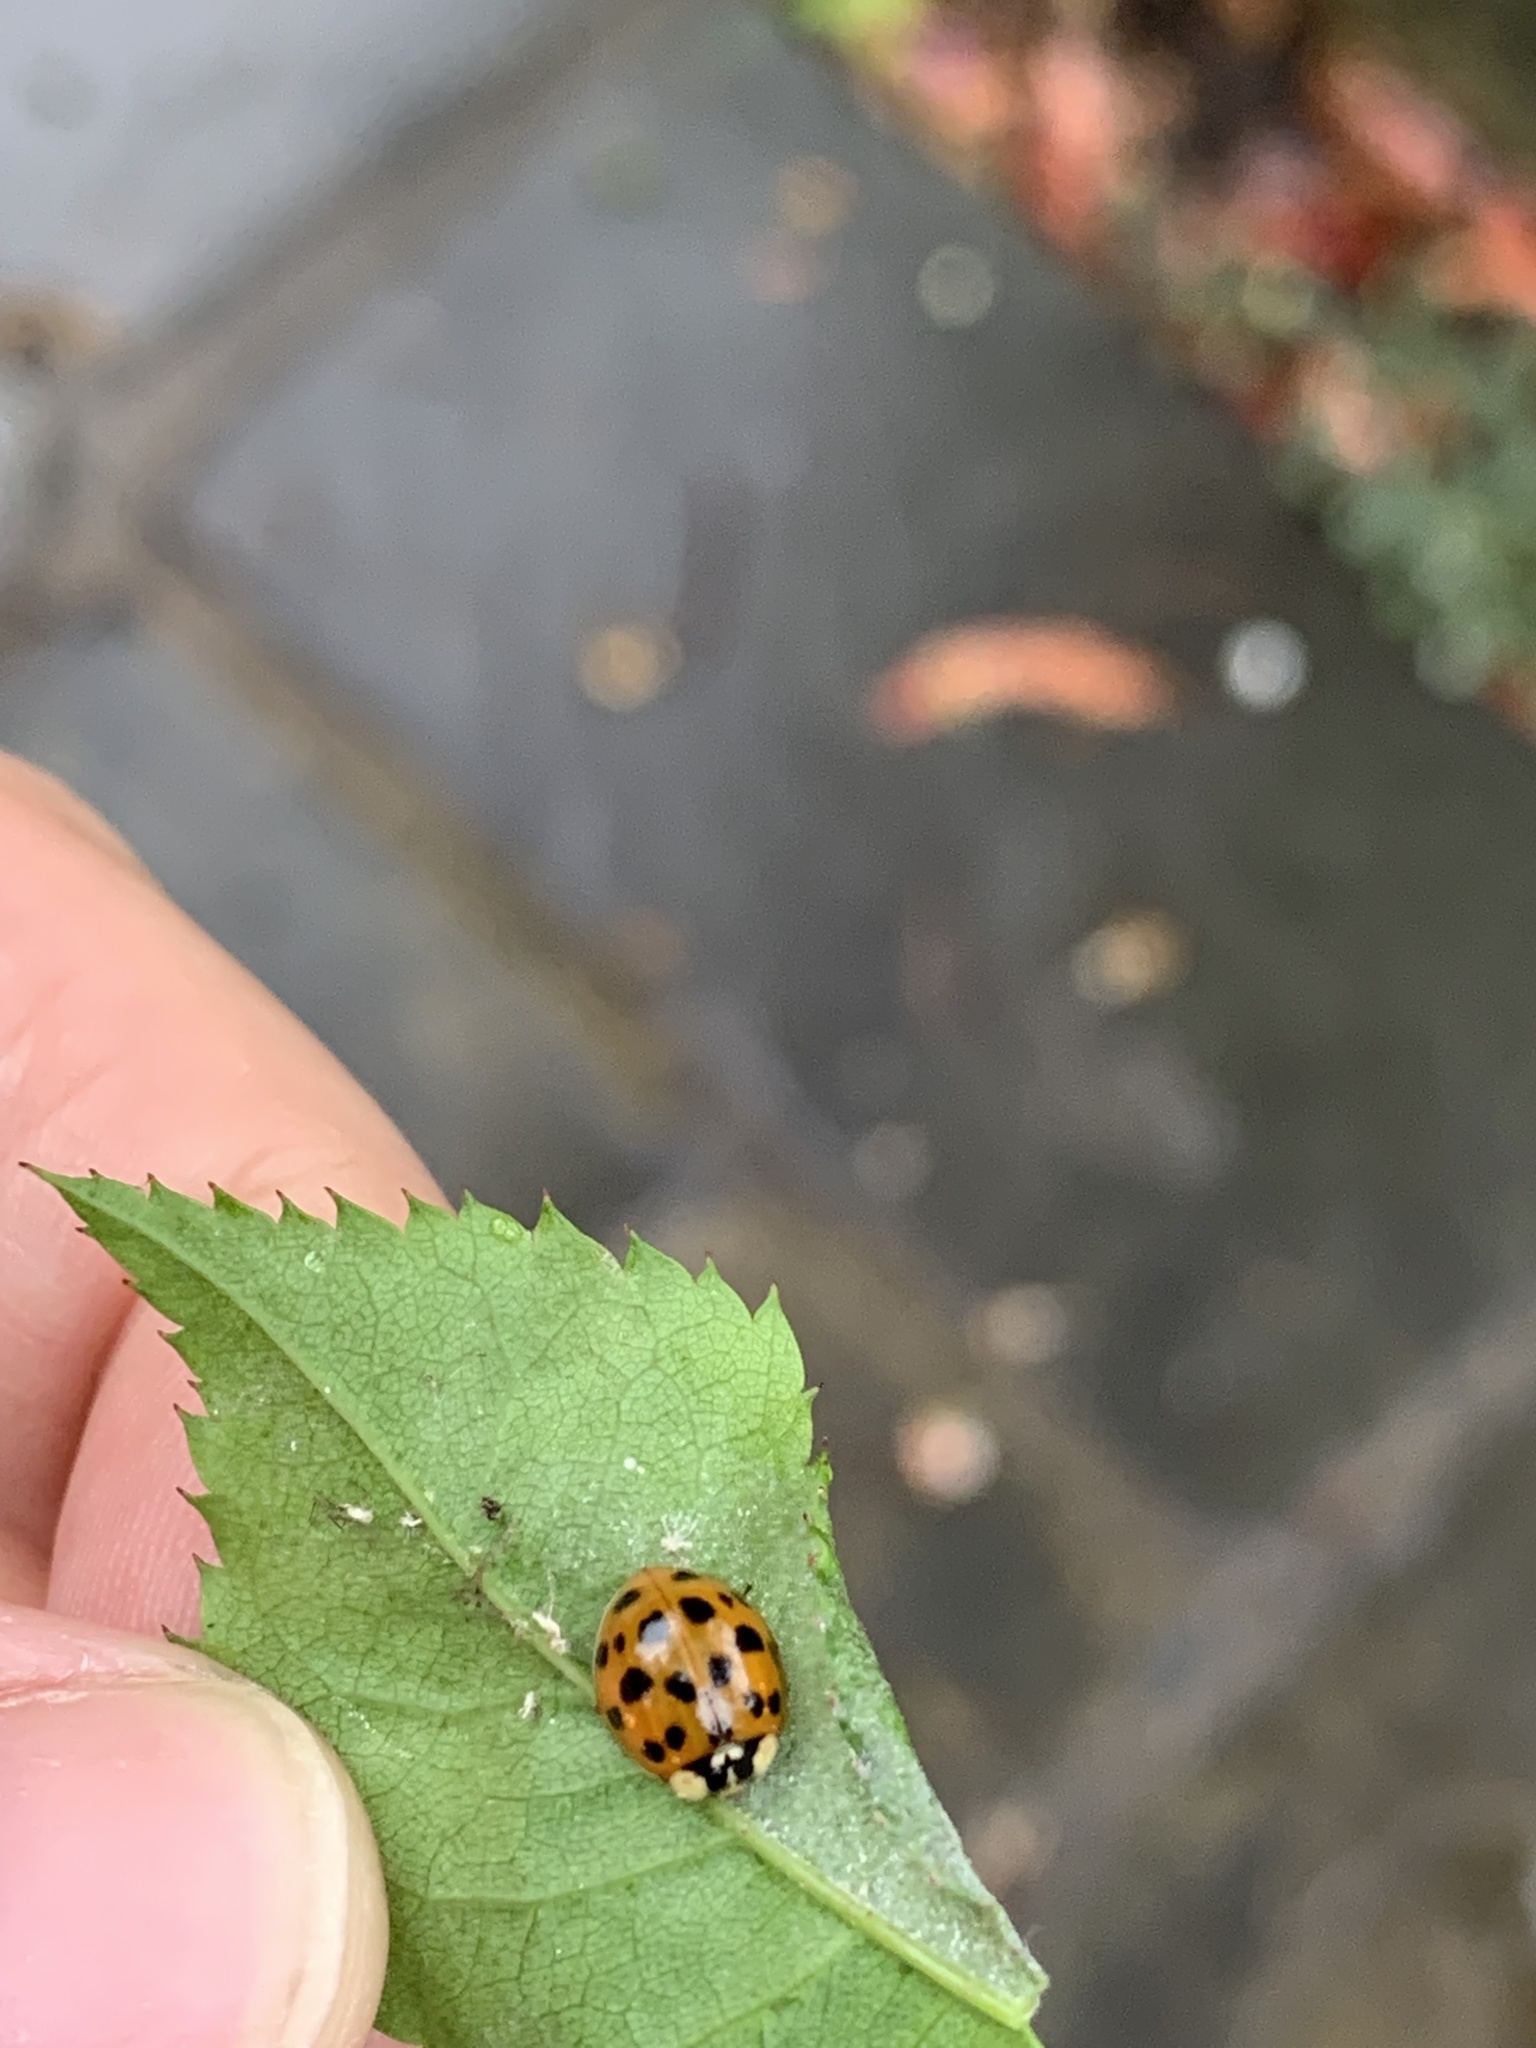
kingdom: Animalia
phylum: Arthropoda
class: Insecta
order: Coleoptera
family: Coccinellidae
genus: Harmonia
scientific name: Harmonia axyridis
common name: Harlequin ladybird
